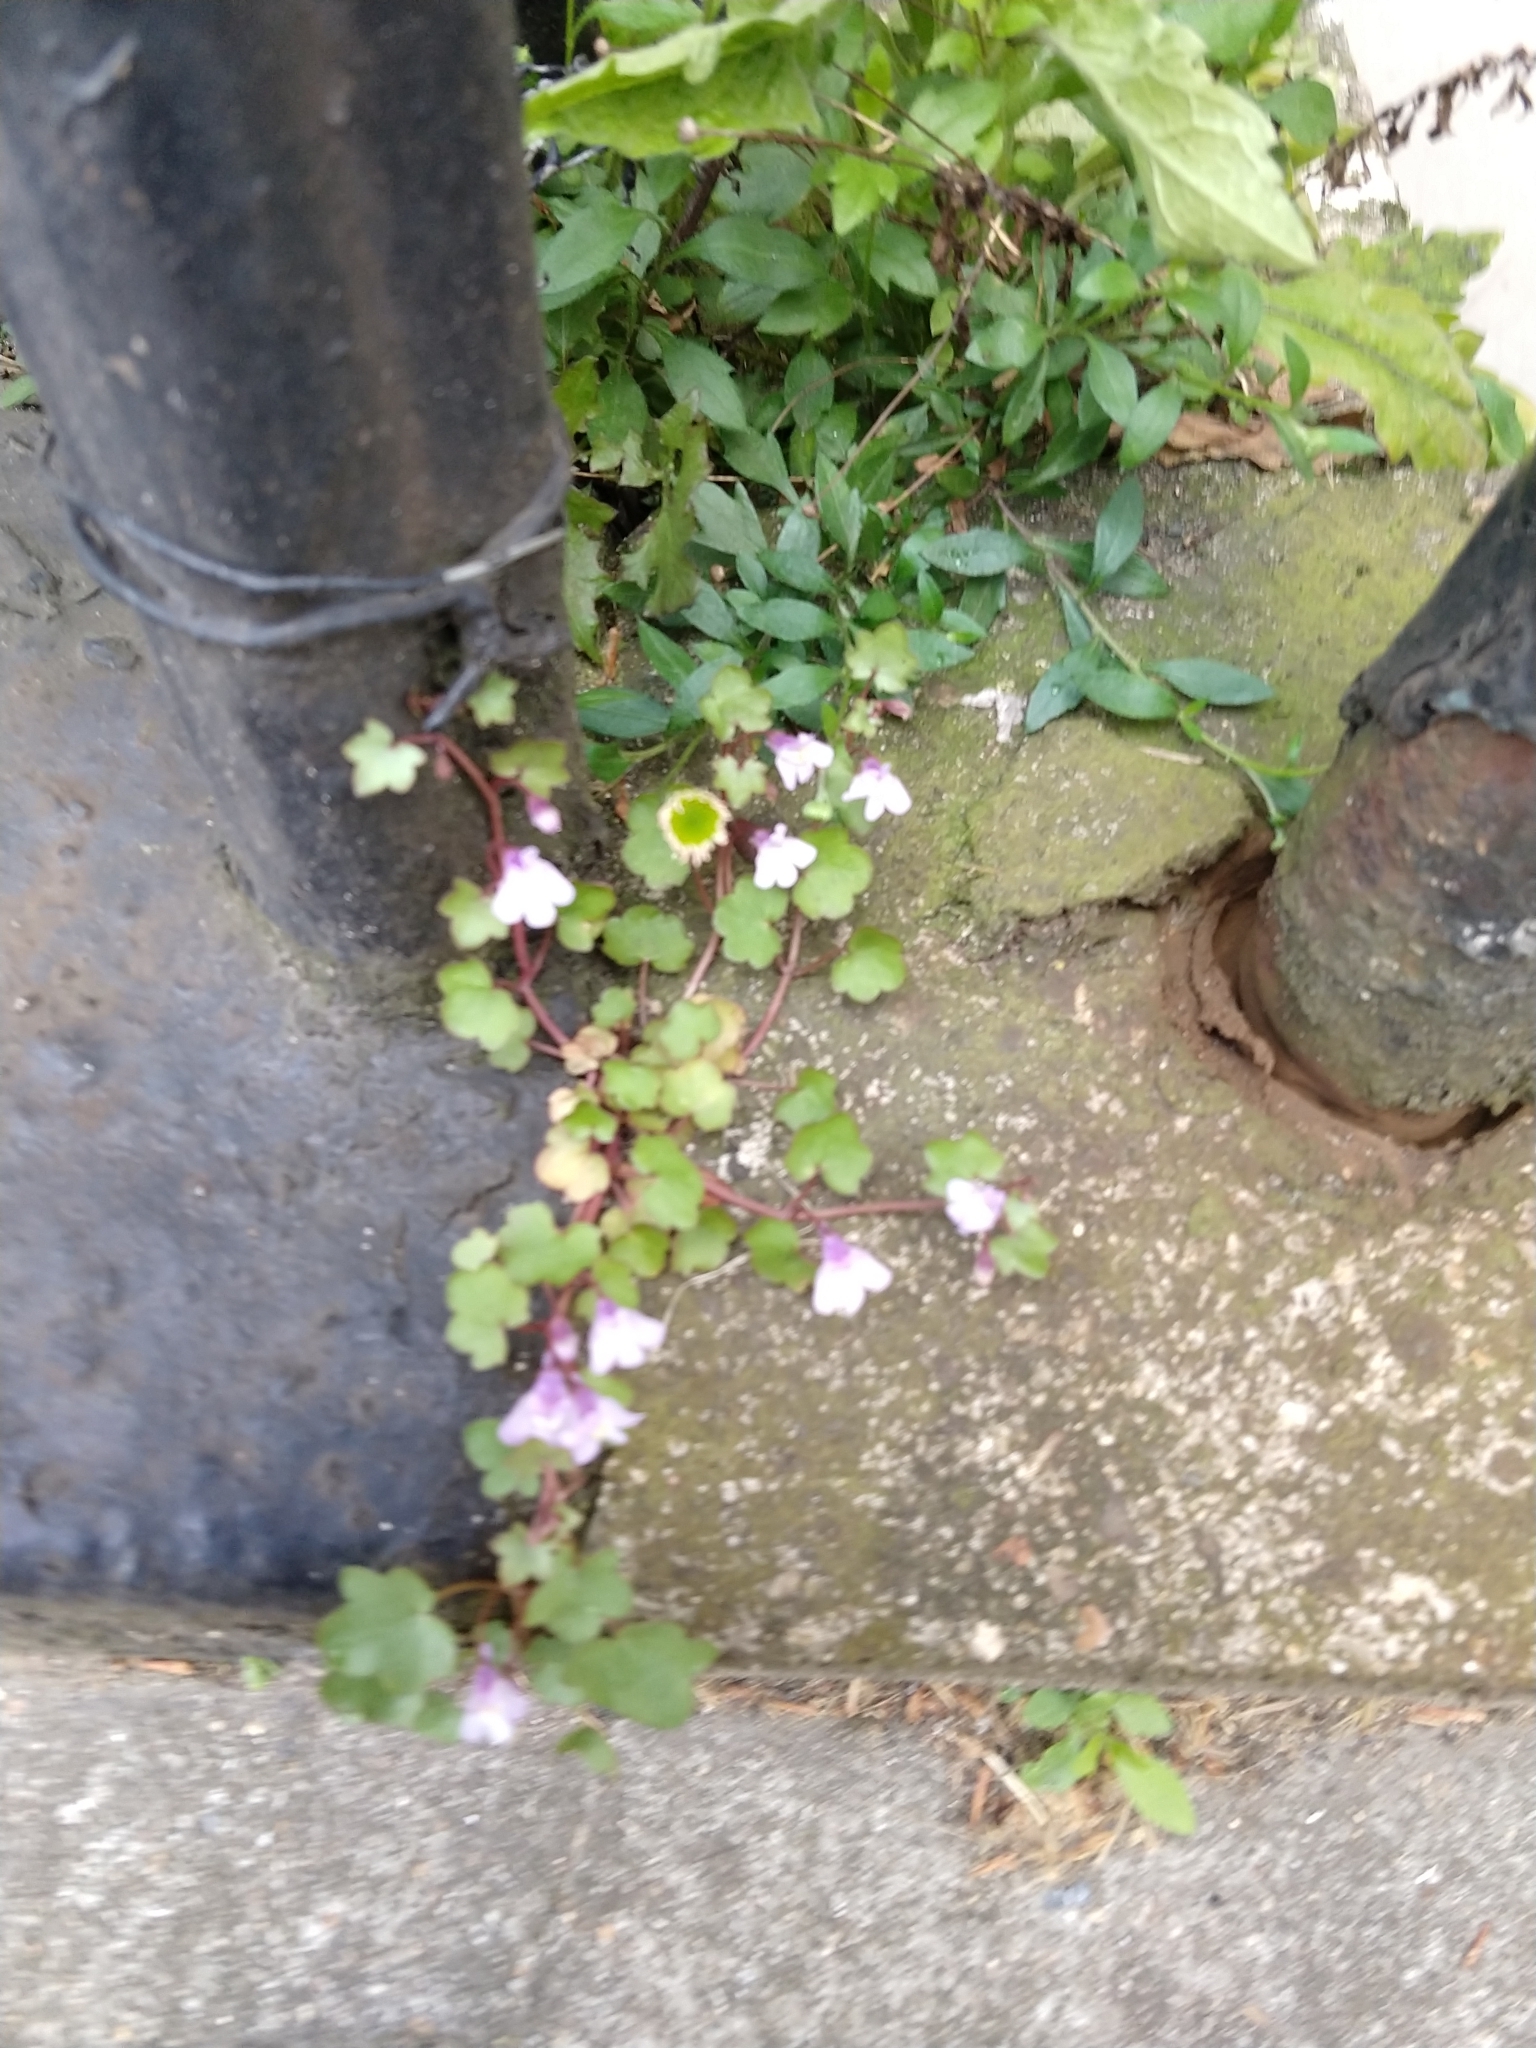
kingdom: Plantae
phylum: Tracheophyta
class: Magnoliopsida
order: Lamiales
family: Plantaginaceae
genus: Cymbalaria
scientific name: Cymbalaria muralis
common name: Ivy-leaved toadflax
